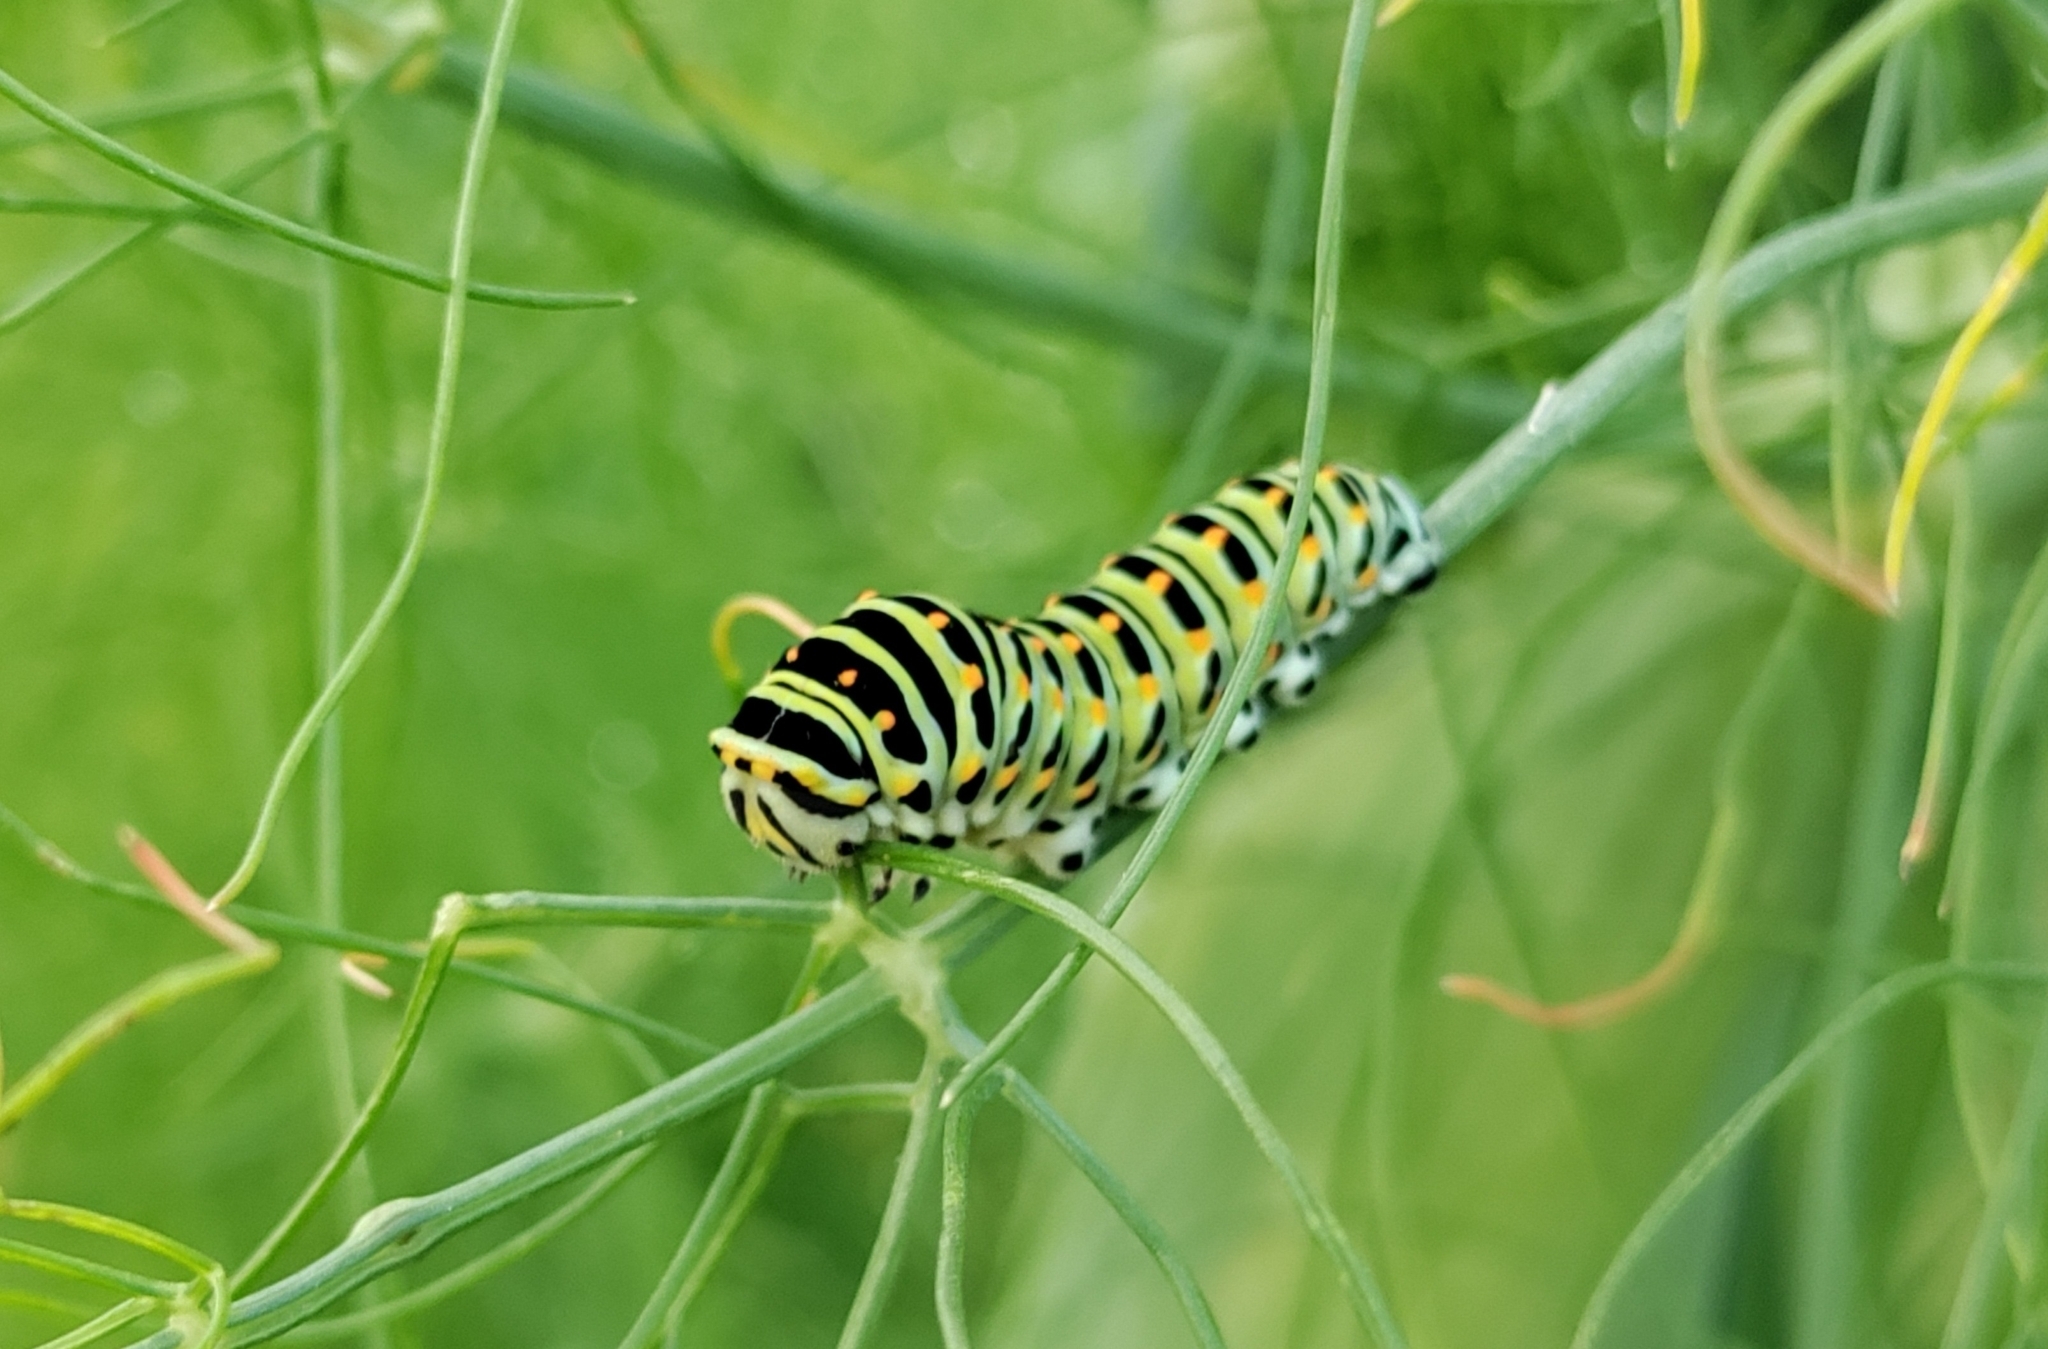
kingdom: Animalia
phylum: Arthropoda
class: Insecta
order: Lepidoptera
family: Papilionidae
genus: Papilio
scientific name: Papilio machaon
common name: Swallowtail
